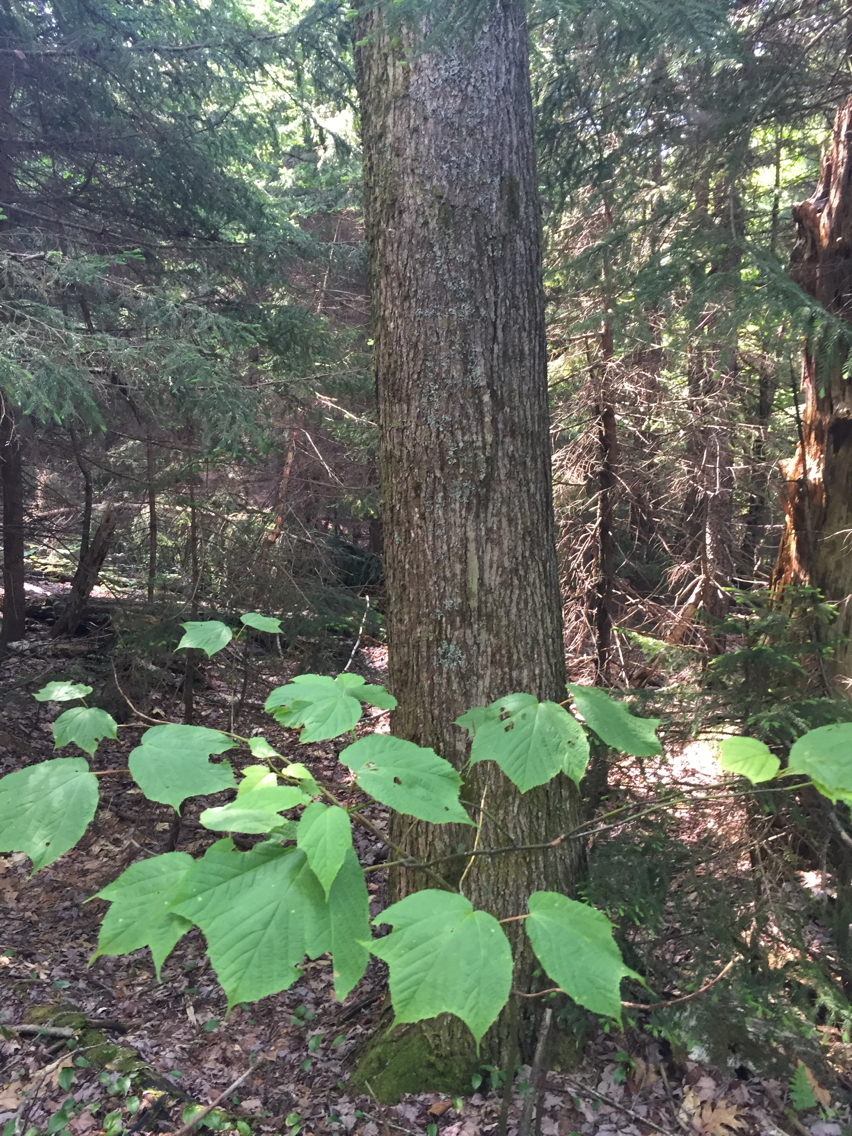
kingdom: Plantae
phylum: Tracheophyta
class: Magnoliopsida
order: Sapindales
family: Sapindaceae
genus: Acer
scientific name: Acer saccharum
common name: Sugar maple
